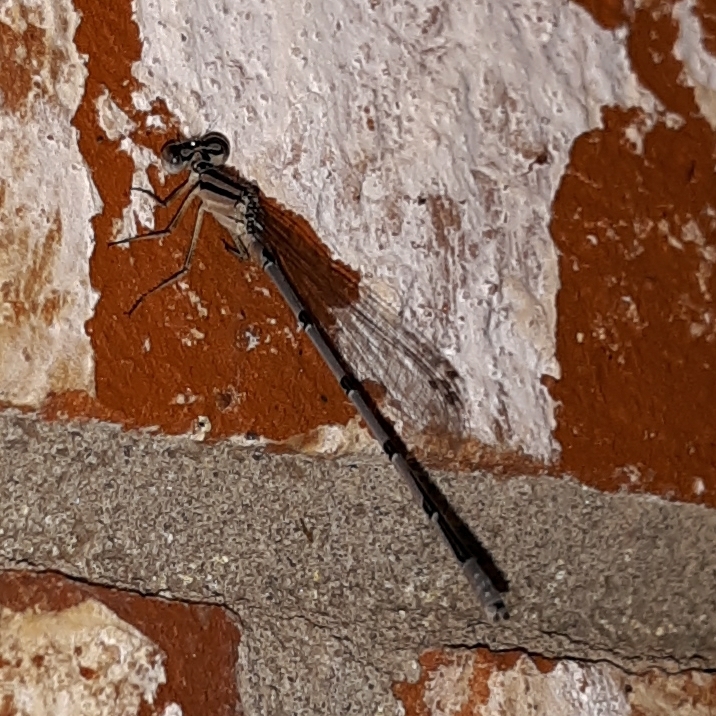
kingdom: Animalia
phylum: Arthropoda
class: Insecta
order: Odonata
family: Coenagrionidae
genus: Enallagma
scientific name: Enallagma civile
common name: Damselfly
